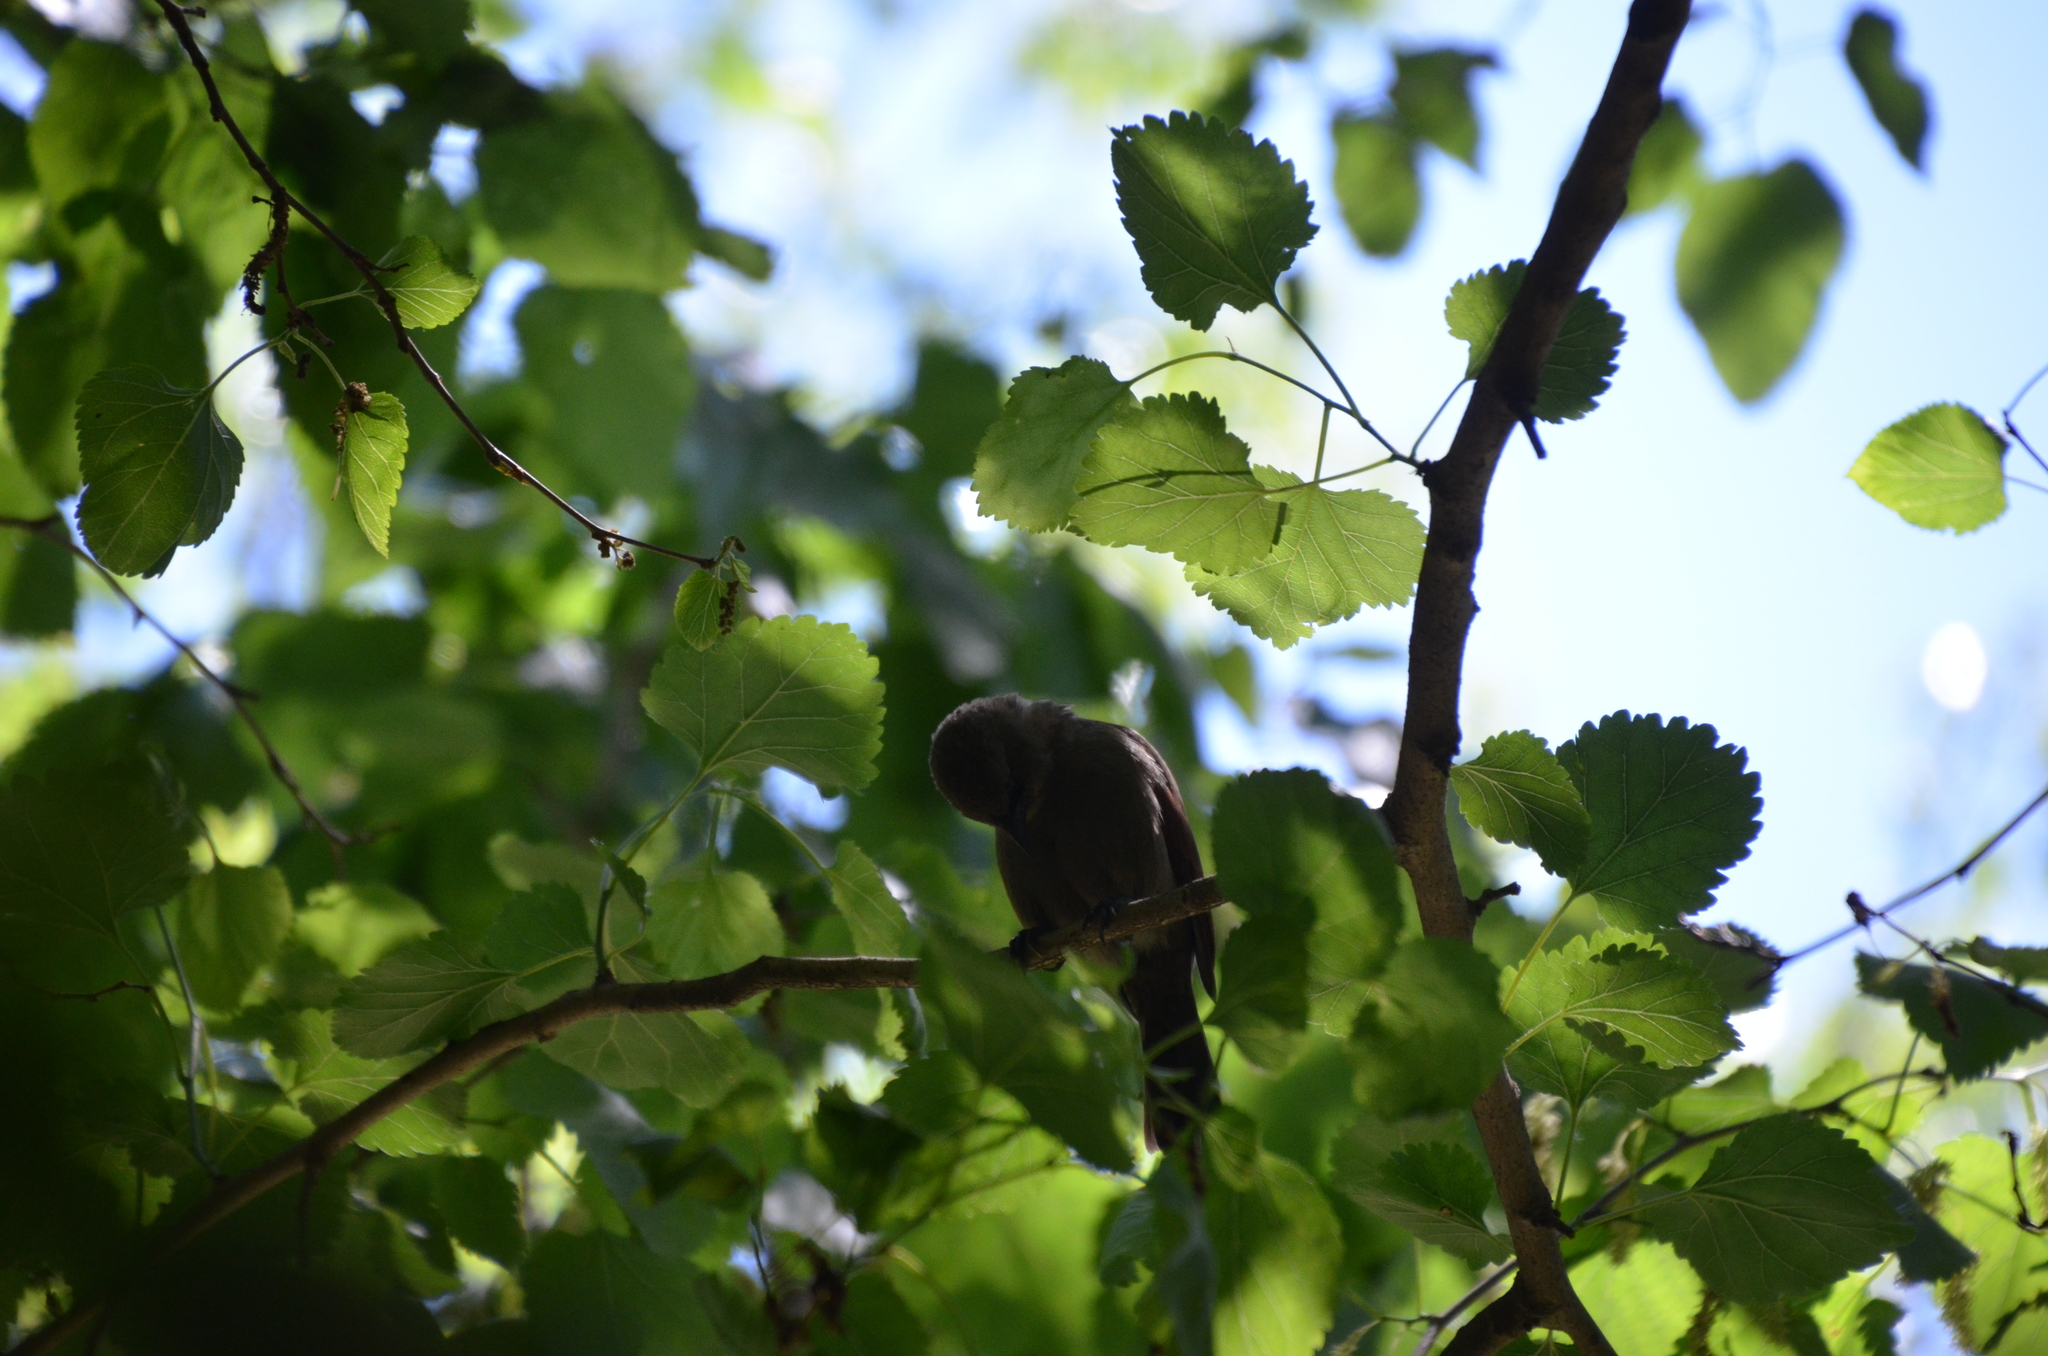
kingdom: Animalia
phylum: Chordata
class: Aves
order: Passeriformes
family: Icteridae
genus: Agelaioides
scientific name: Agelaioides badius
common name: Baywing
